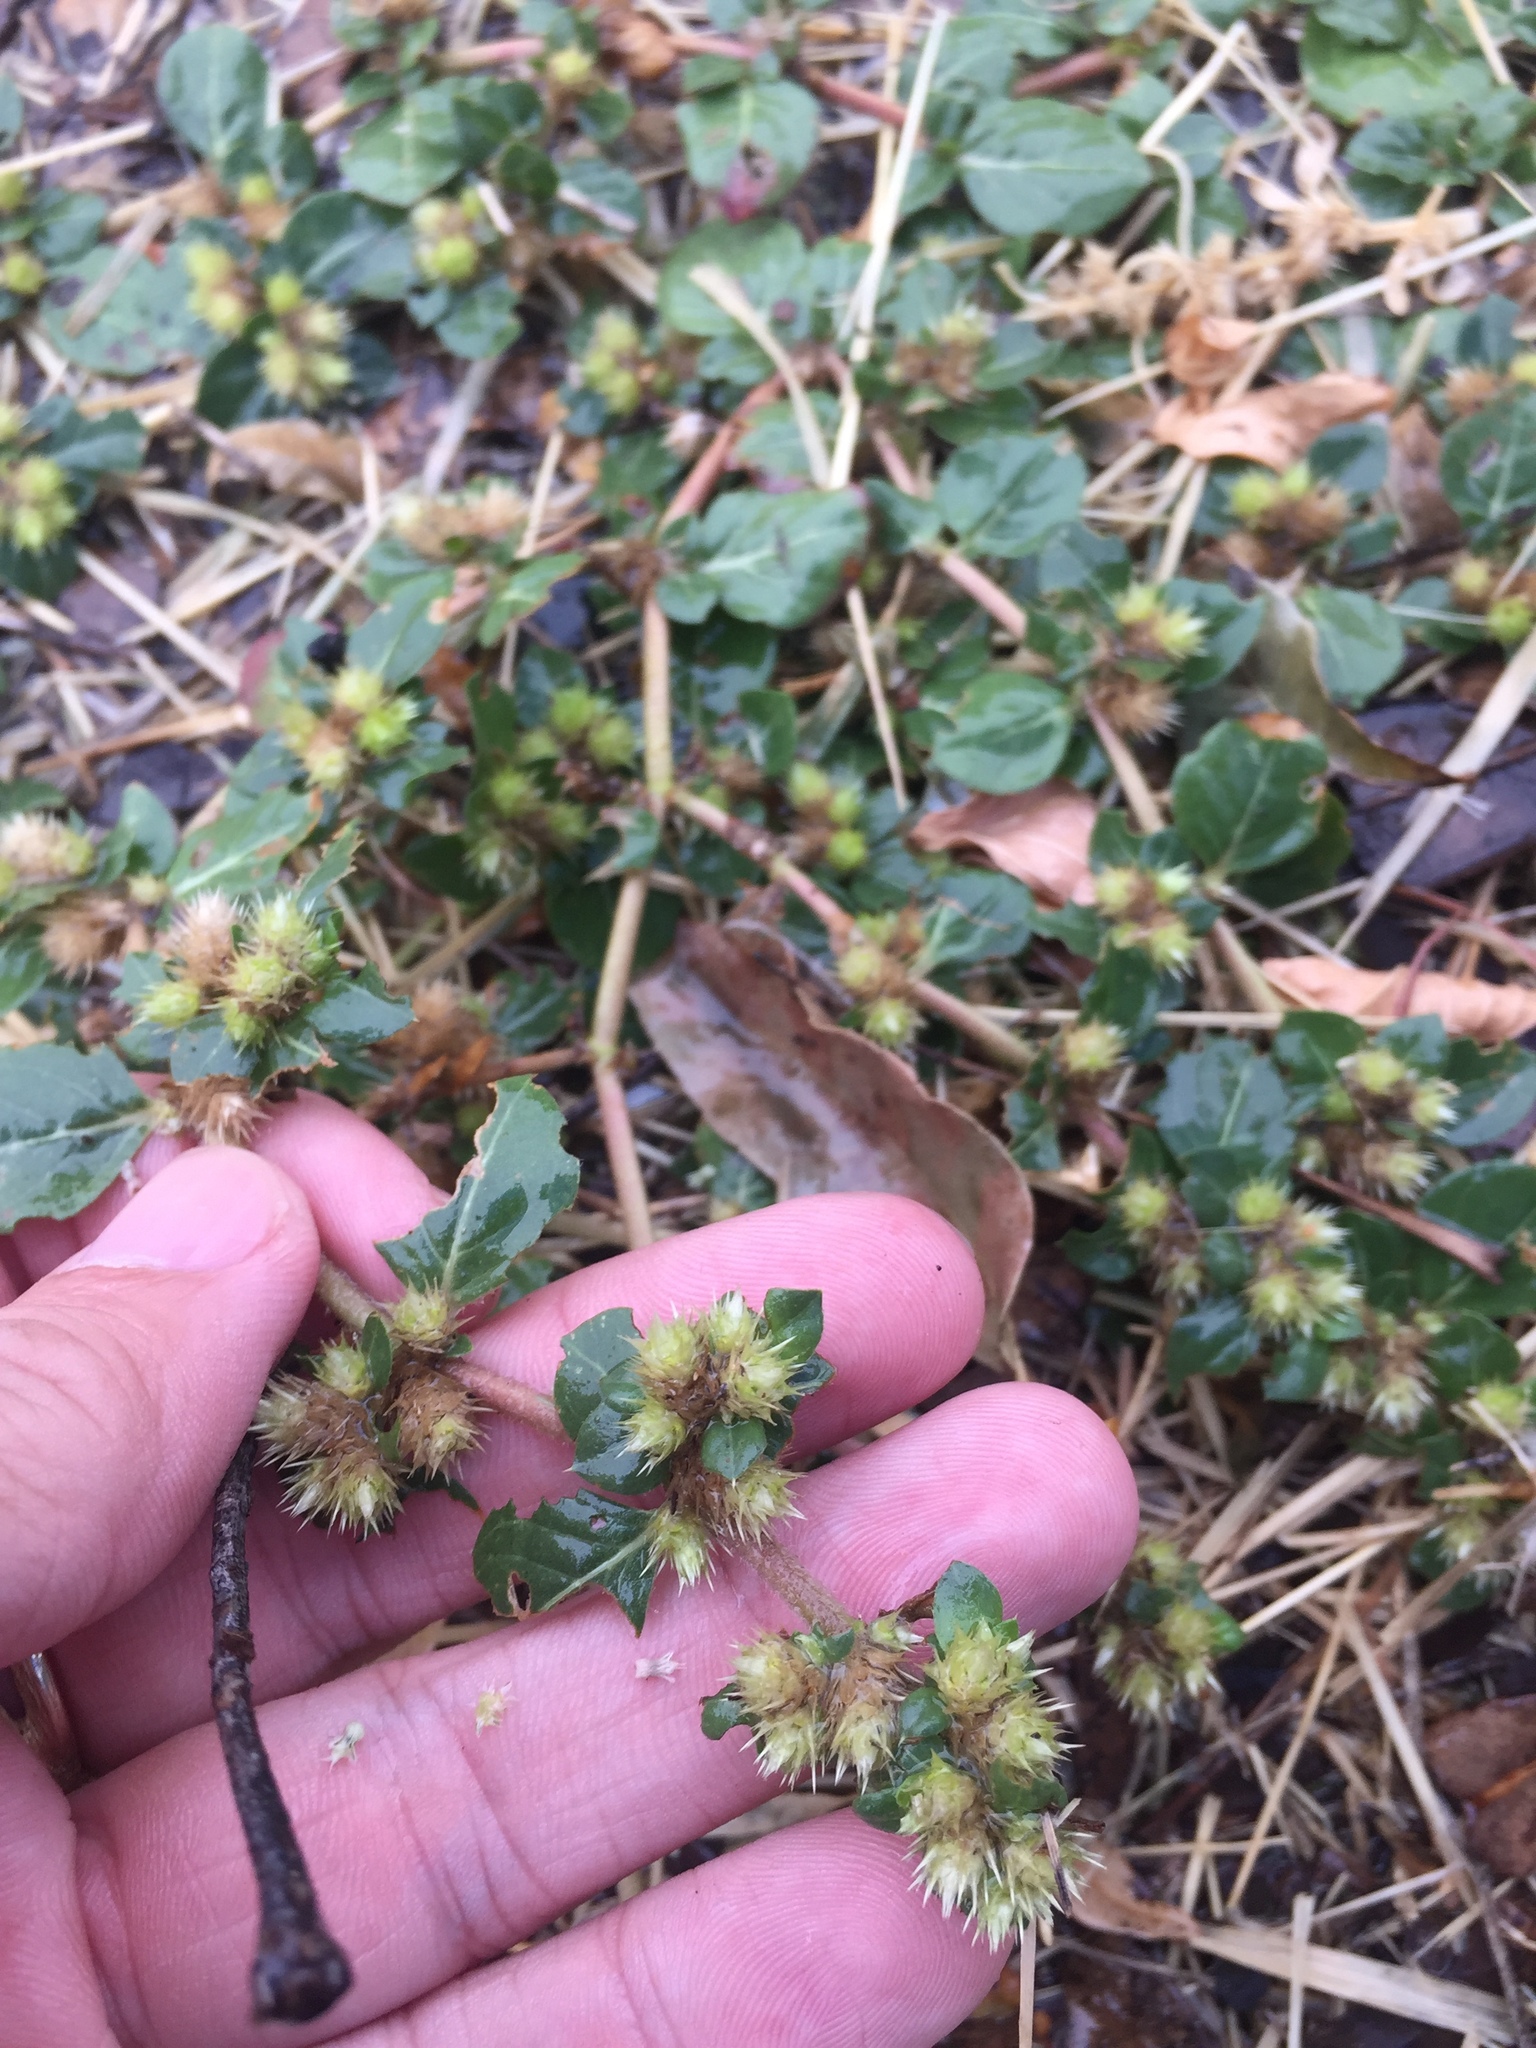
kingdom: Plantae
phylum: Tracheophyta
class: Magnoliopsida
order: Caryophyllales
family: Amaranthaceae
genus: Alternanthera
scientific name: Alternanthera pungens
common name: Khakiweed
